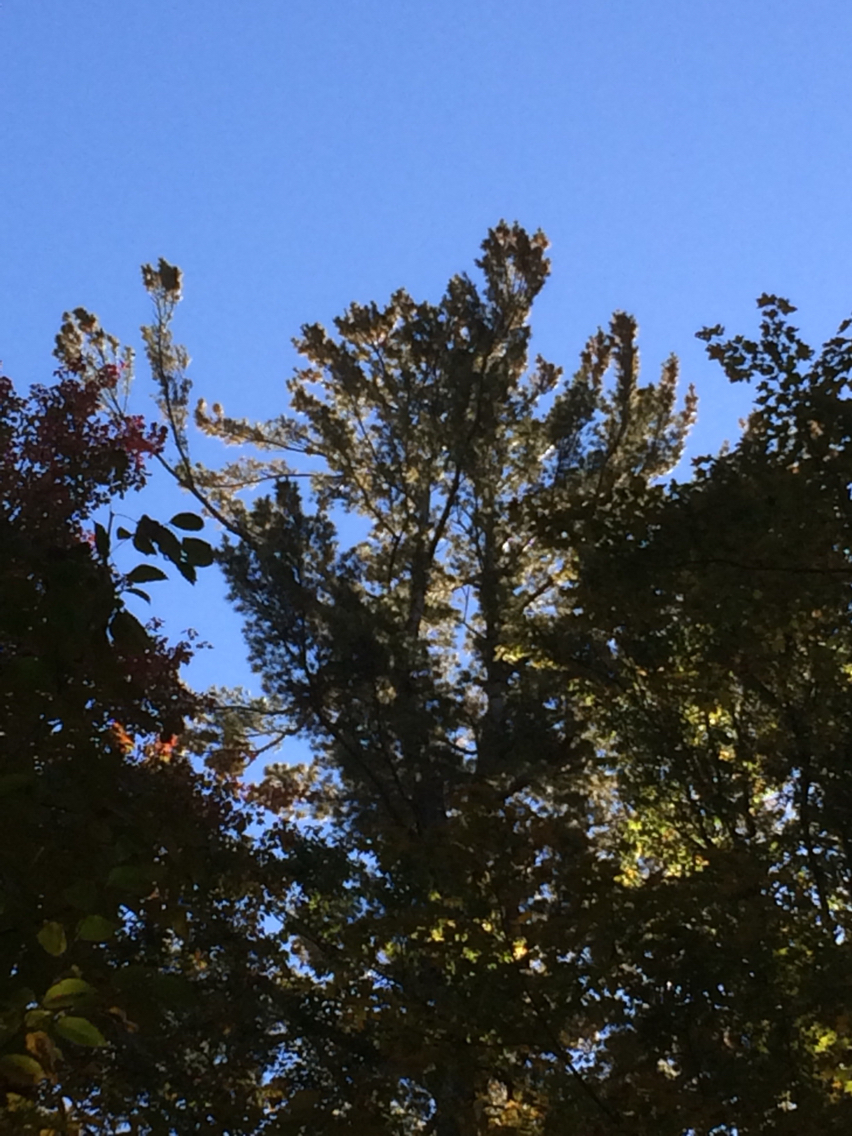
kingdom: Plantae
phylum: Tracheophyta
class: Pinopsida
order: Pinales
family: Pinaceae
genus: Pinus
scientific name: Pinus strobus
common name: Weymouth pine
